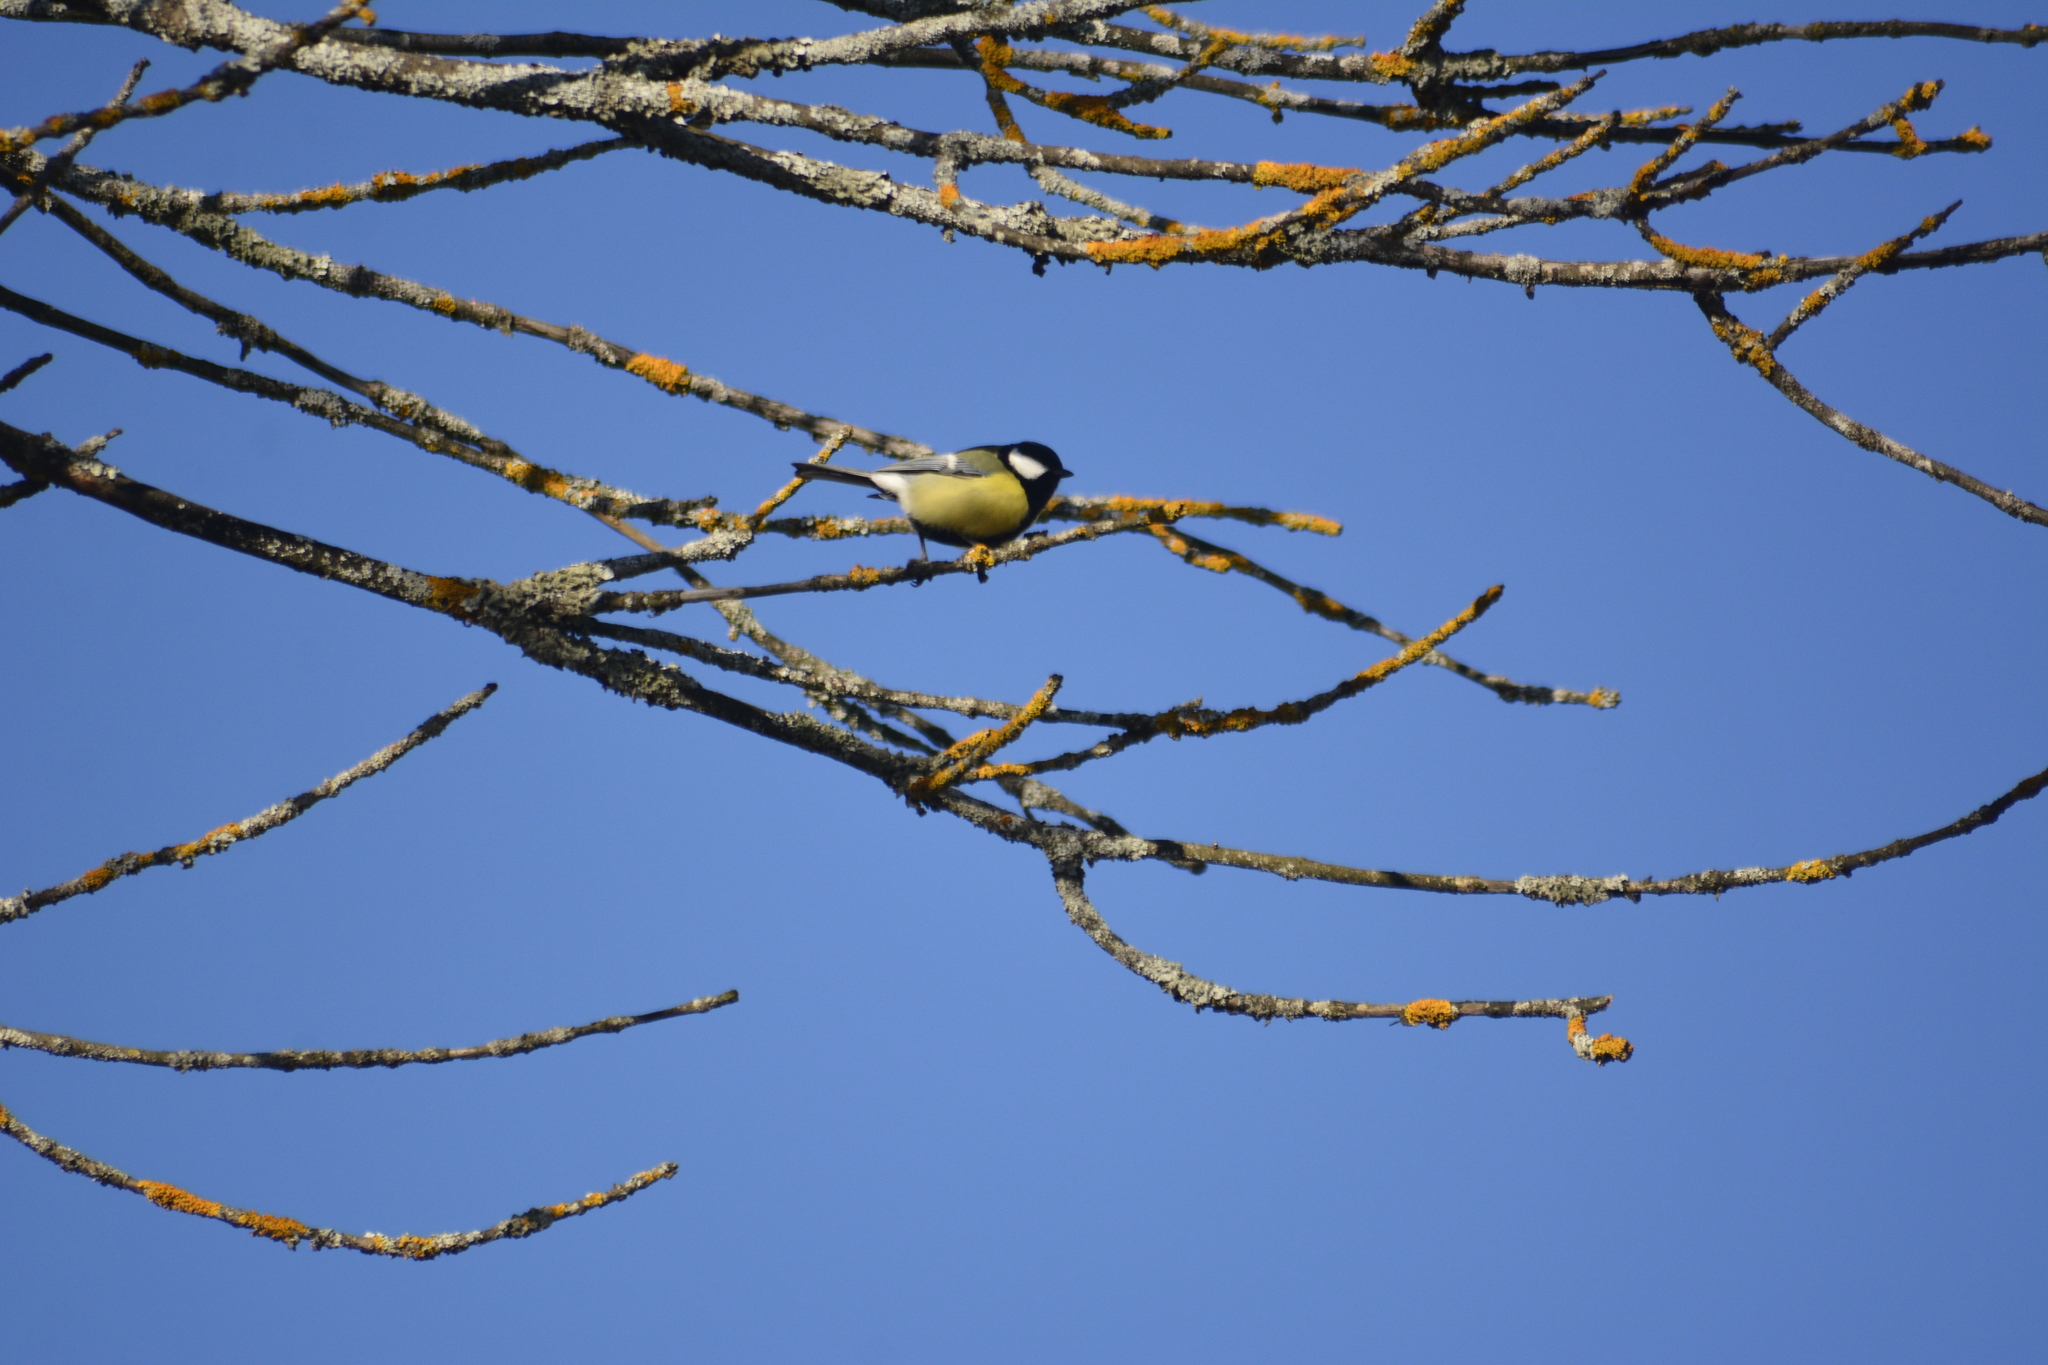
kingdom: Animalia
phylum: Chordata
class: Aves
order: Passeriformes
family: Paridae
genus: Parus
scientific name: Parus major
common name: Great tit
